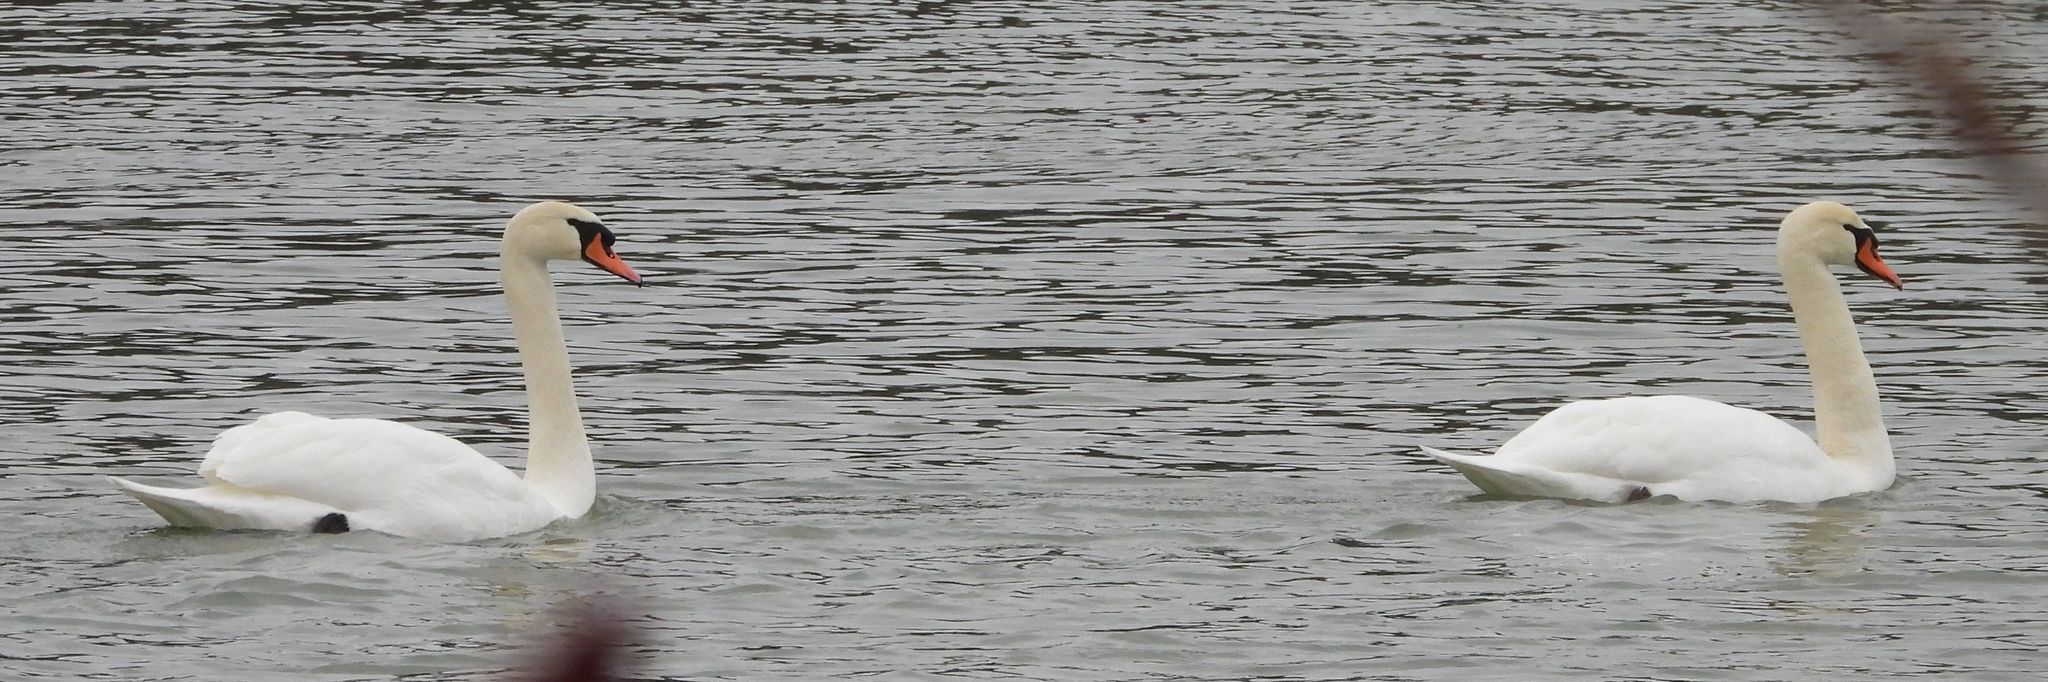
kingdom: Animalia
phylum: Chordata
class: Aves
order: Anseriformes
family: Anatidae
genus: Cygnus
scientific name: Cygnus olor
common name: Mute swan
